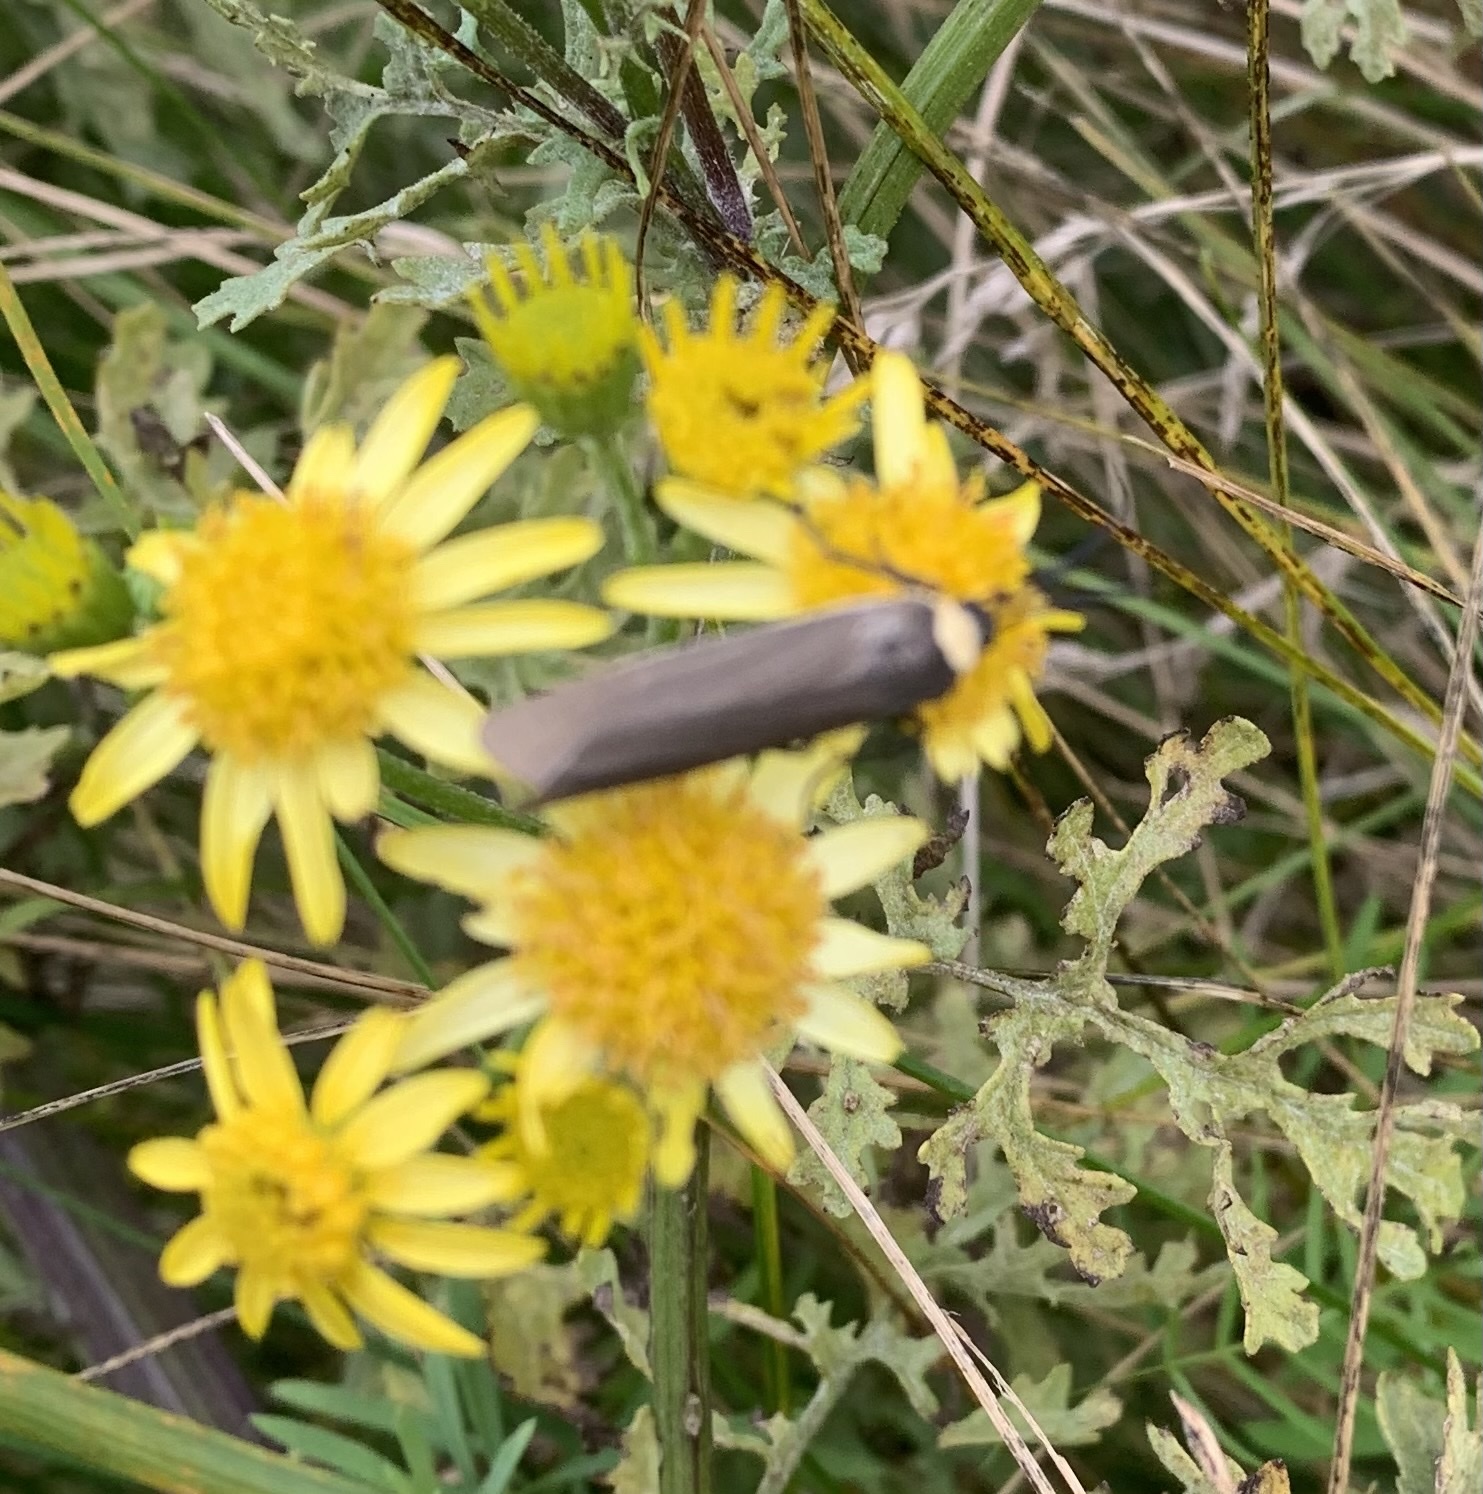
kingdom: Animalia
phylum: Arthropoda
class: Insecta
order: Lepidoptera
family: Erebidae
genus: Cisseps
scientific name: Cisseps fulvicollis
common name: Yellow-collared scape moth
